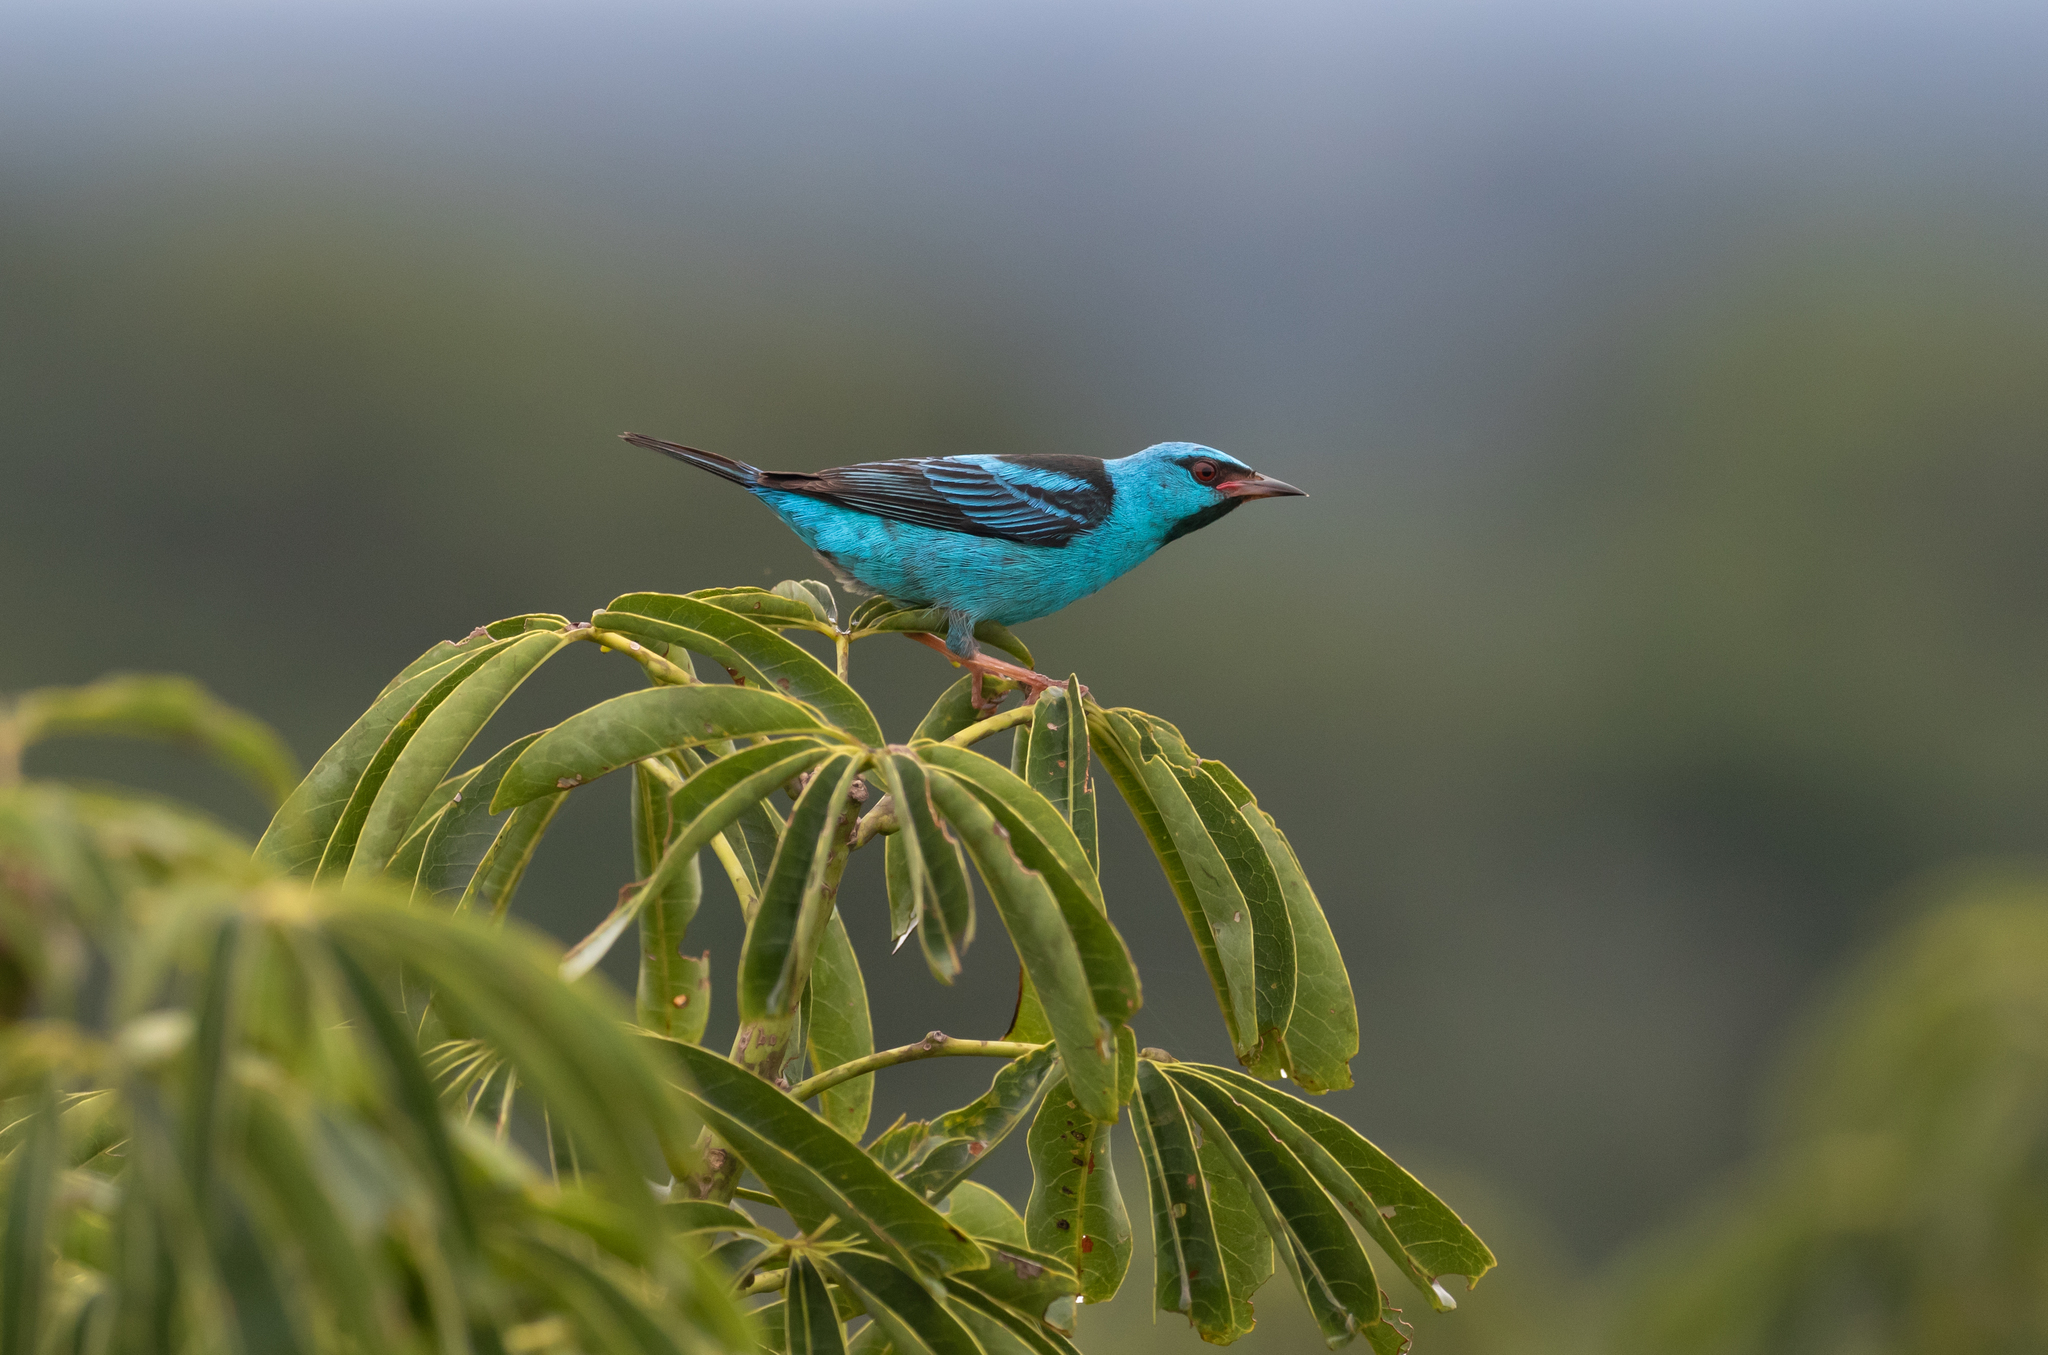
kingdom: Animalia
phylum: Chordata
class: Aves
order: Passeriformes
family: Thraupidae
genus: Dacnis
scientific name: Dacnis cayana
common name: Blue dacnis
